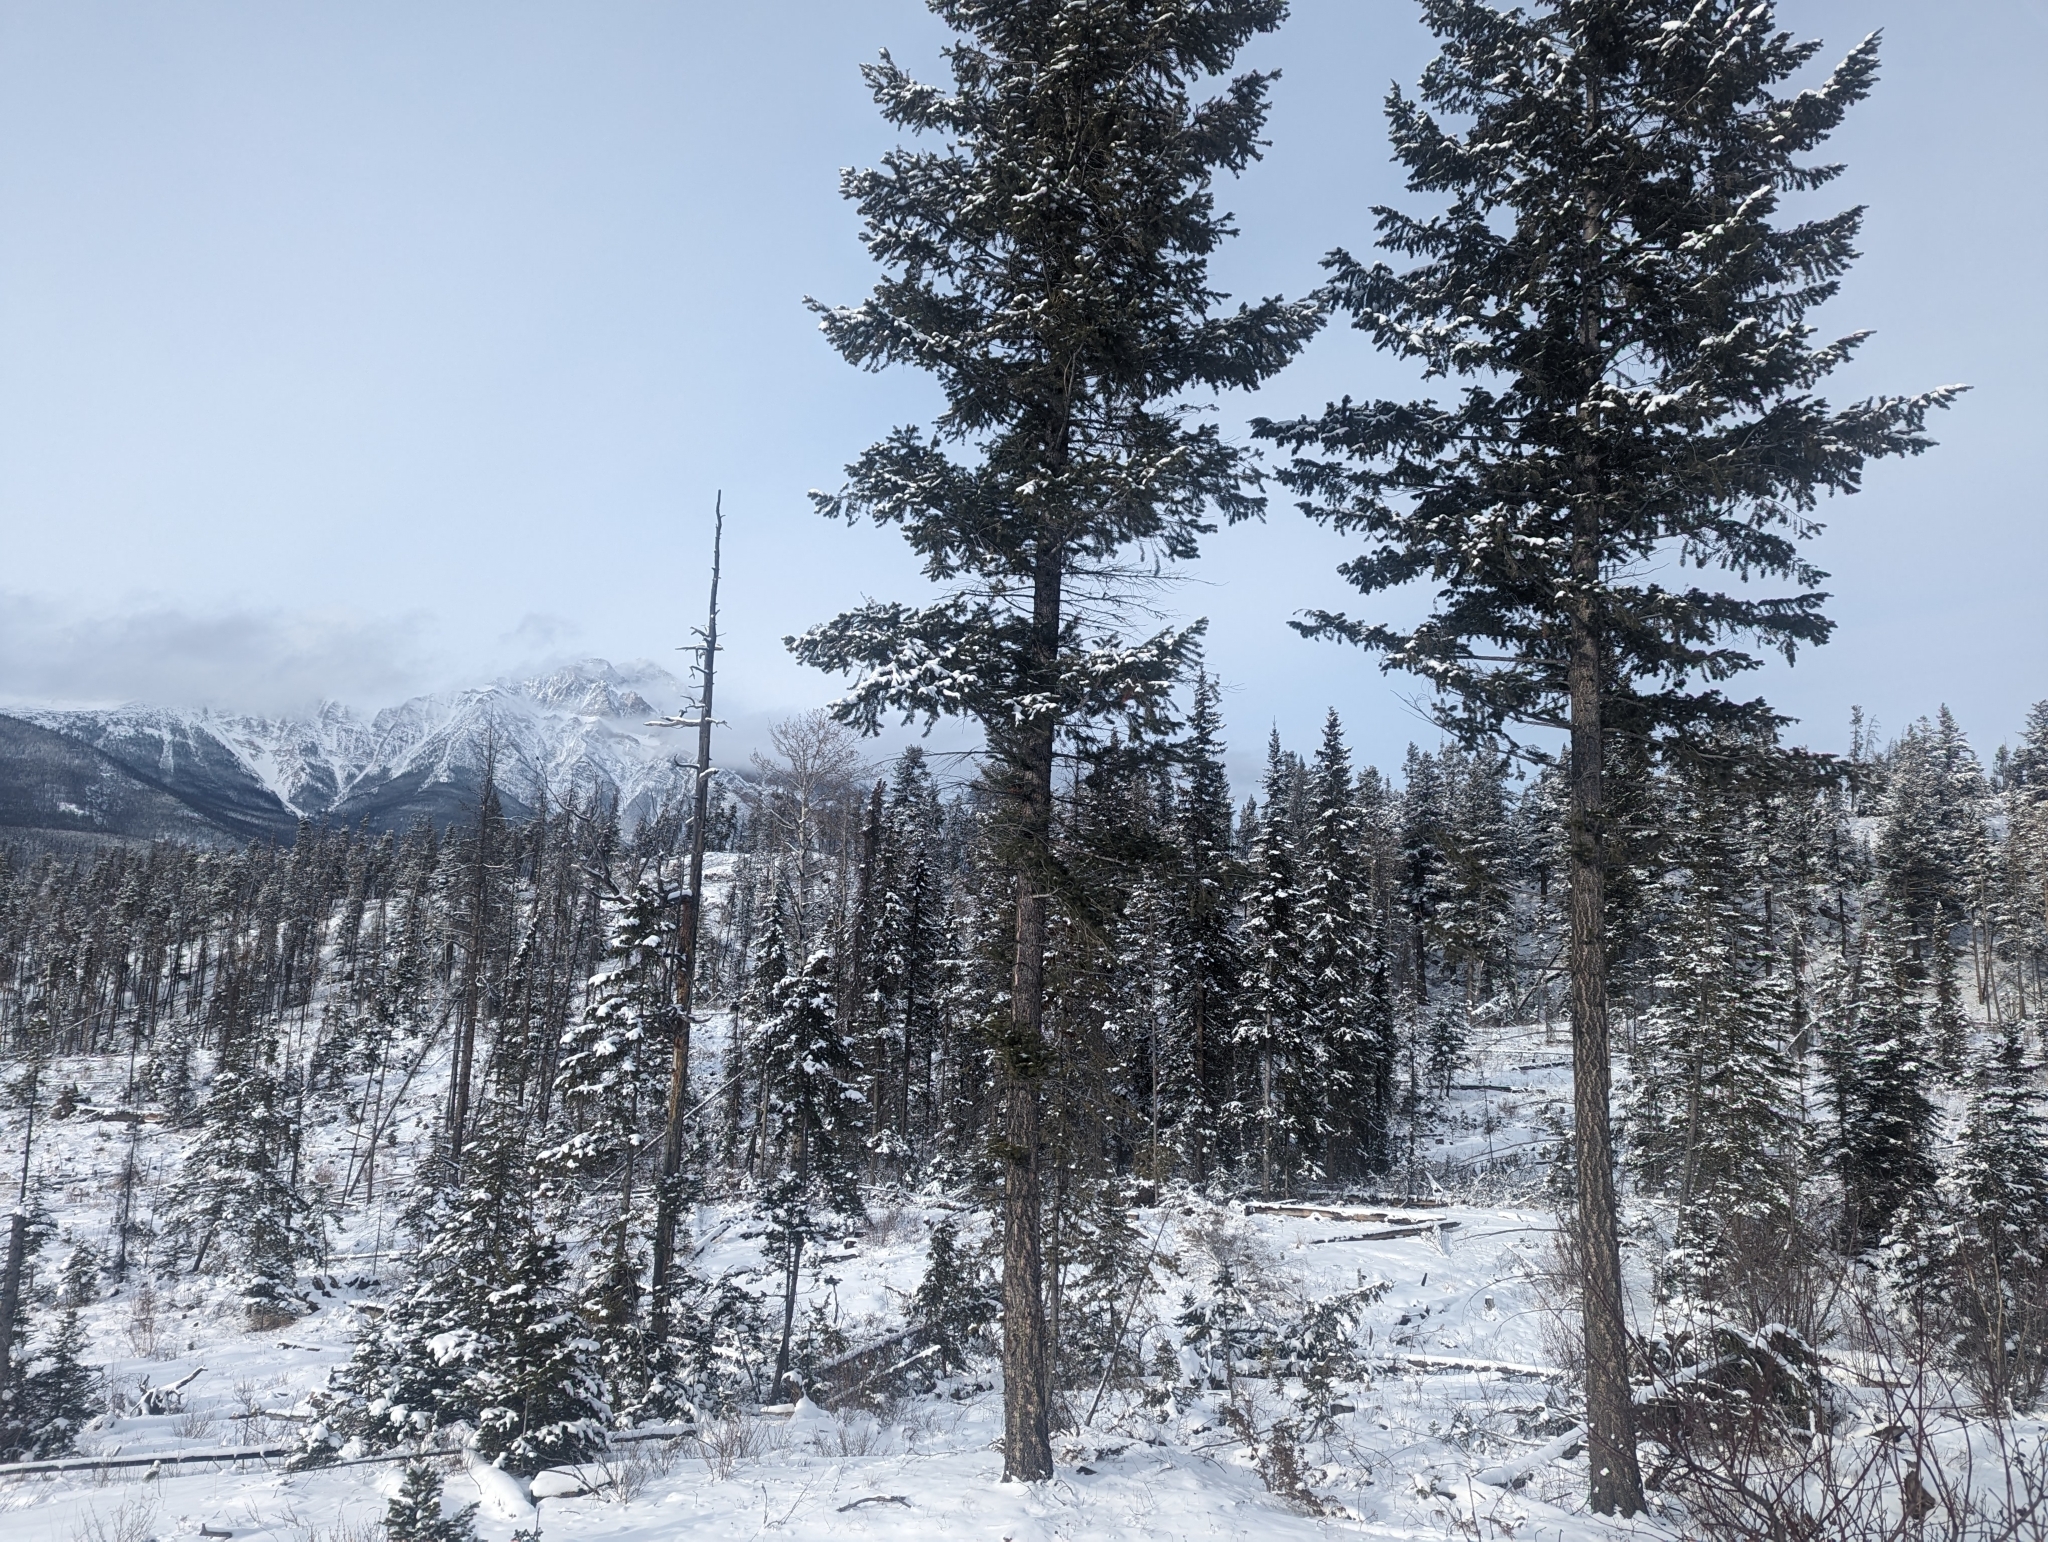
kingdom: Plantae
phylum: Tracheophyta
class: Pinopsida
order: Pinales
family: Pinaceae
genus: Pseudotsuga
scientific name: Pseudotsuga menziesii
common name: Douglas fir
